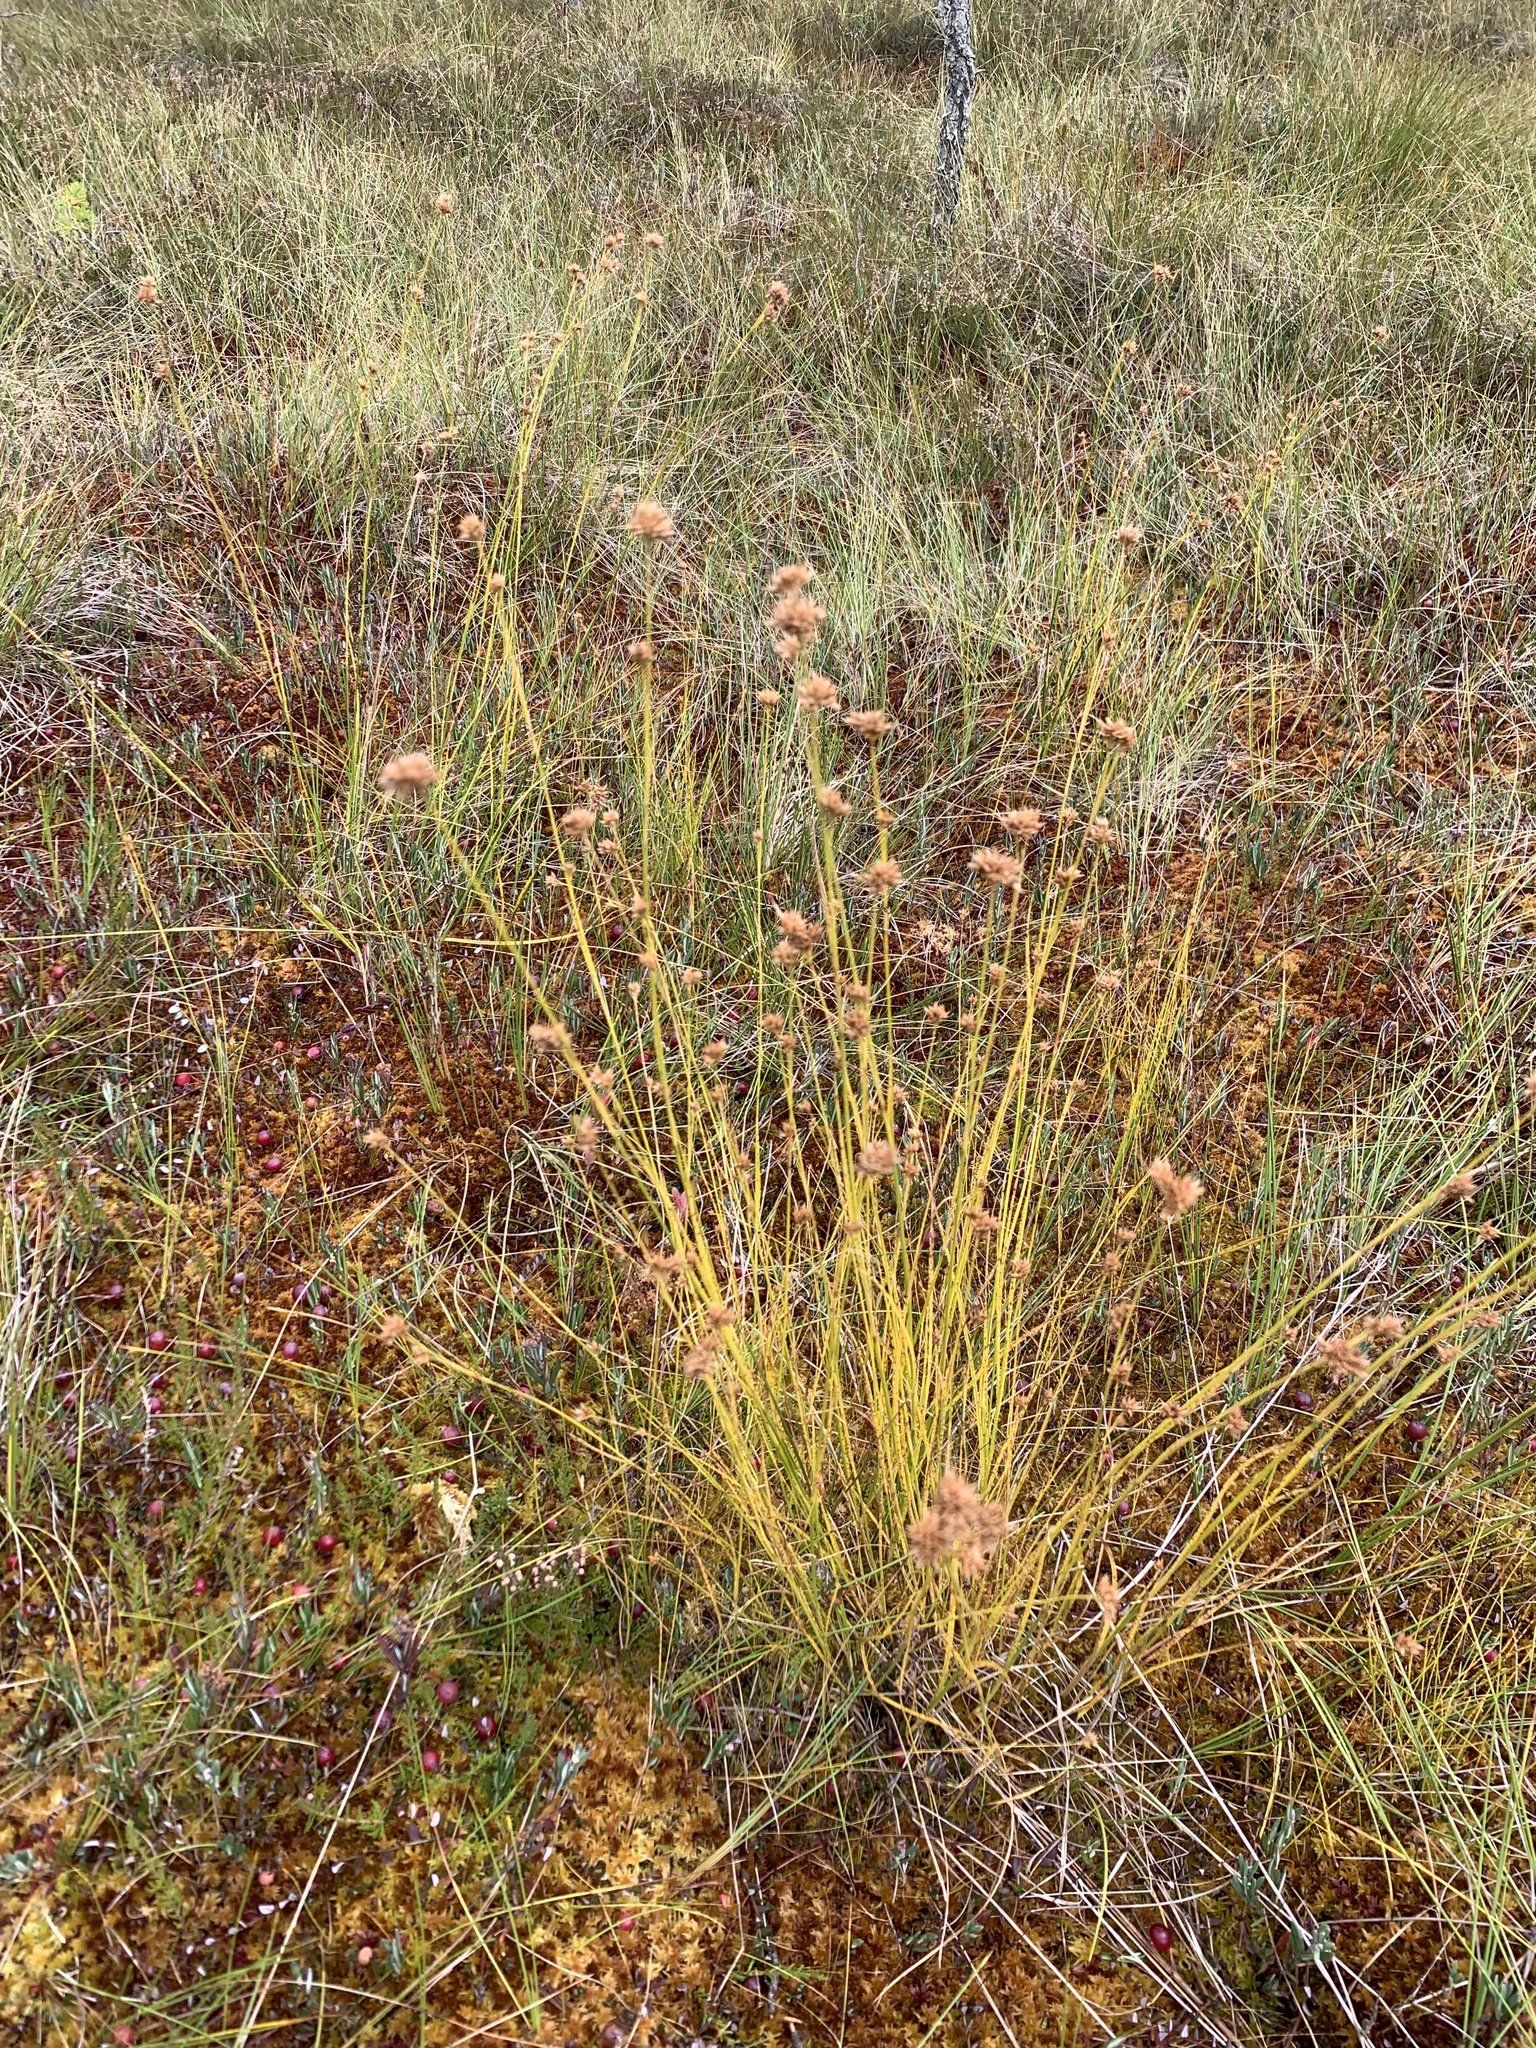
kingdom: Plantae
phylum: Tracheophyta
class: Liliopsida
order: Poales
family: Cyperaceae
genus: Rhynchospora
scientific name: Rhynchospora alba
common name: White beak-sedge
